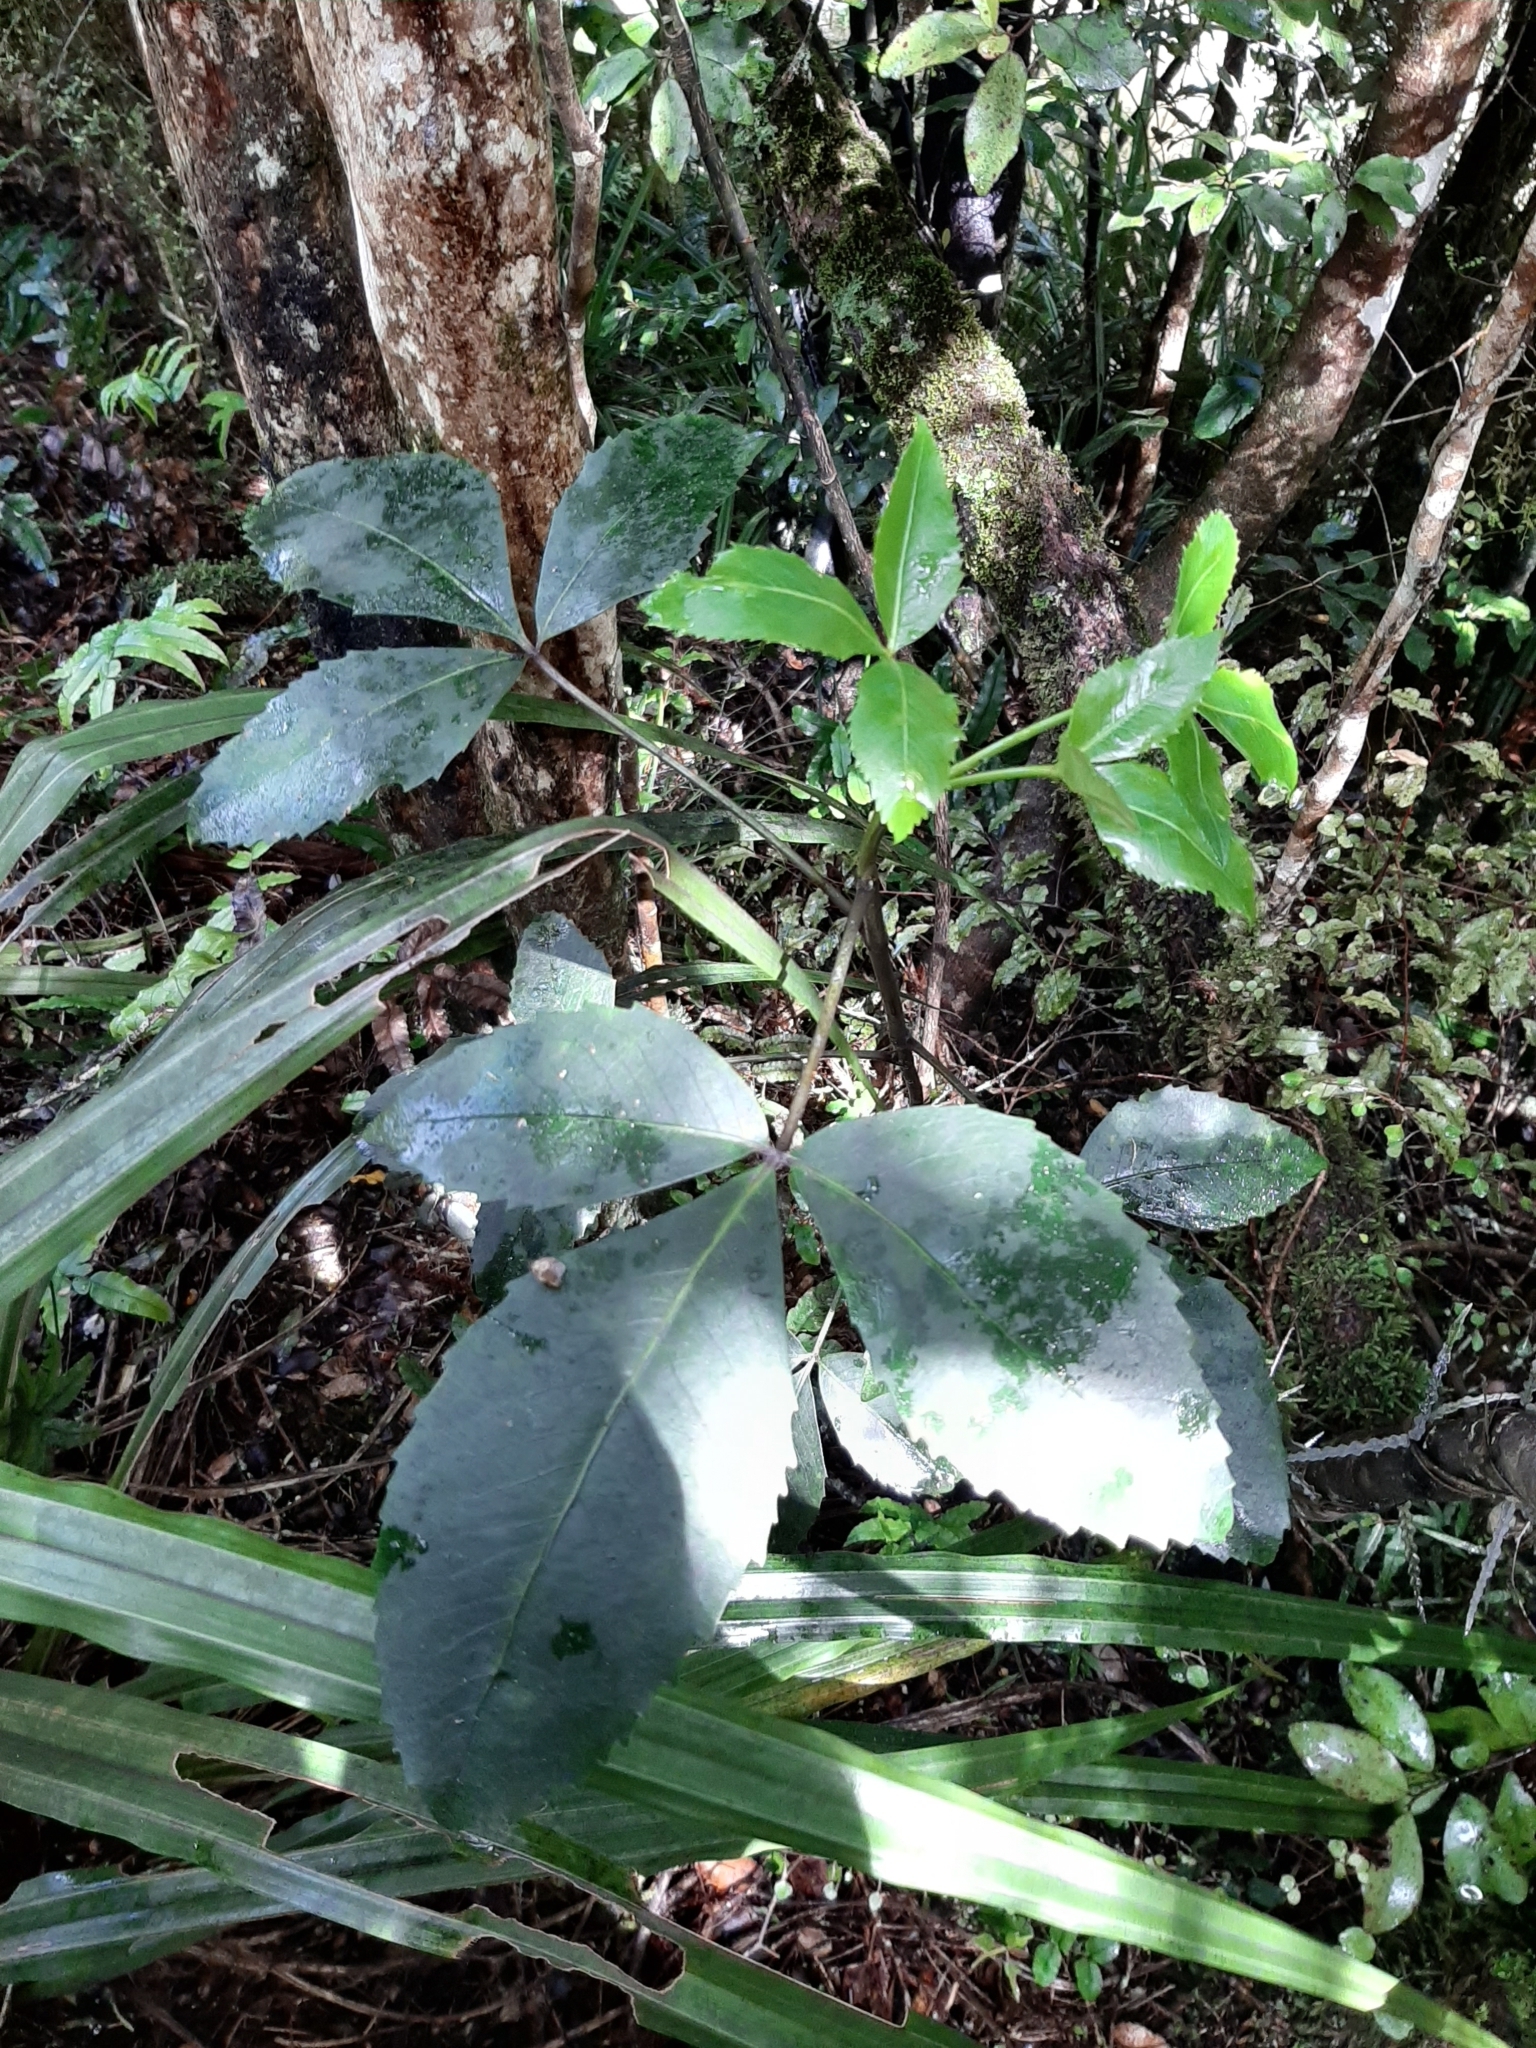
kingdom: Plantae
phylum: Tracheophyta
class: Magnoliopsida
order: Apiales
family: Araliaceae
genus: Neopanax
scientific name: Neopanax colensoi
